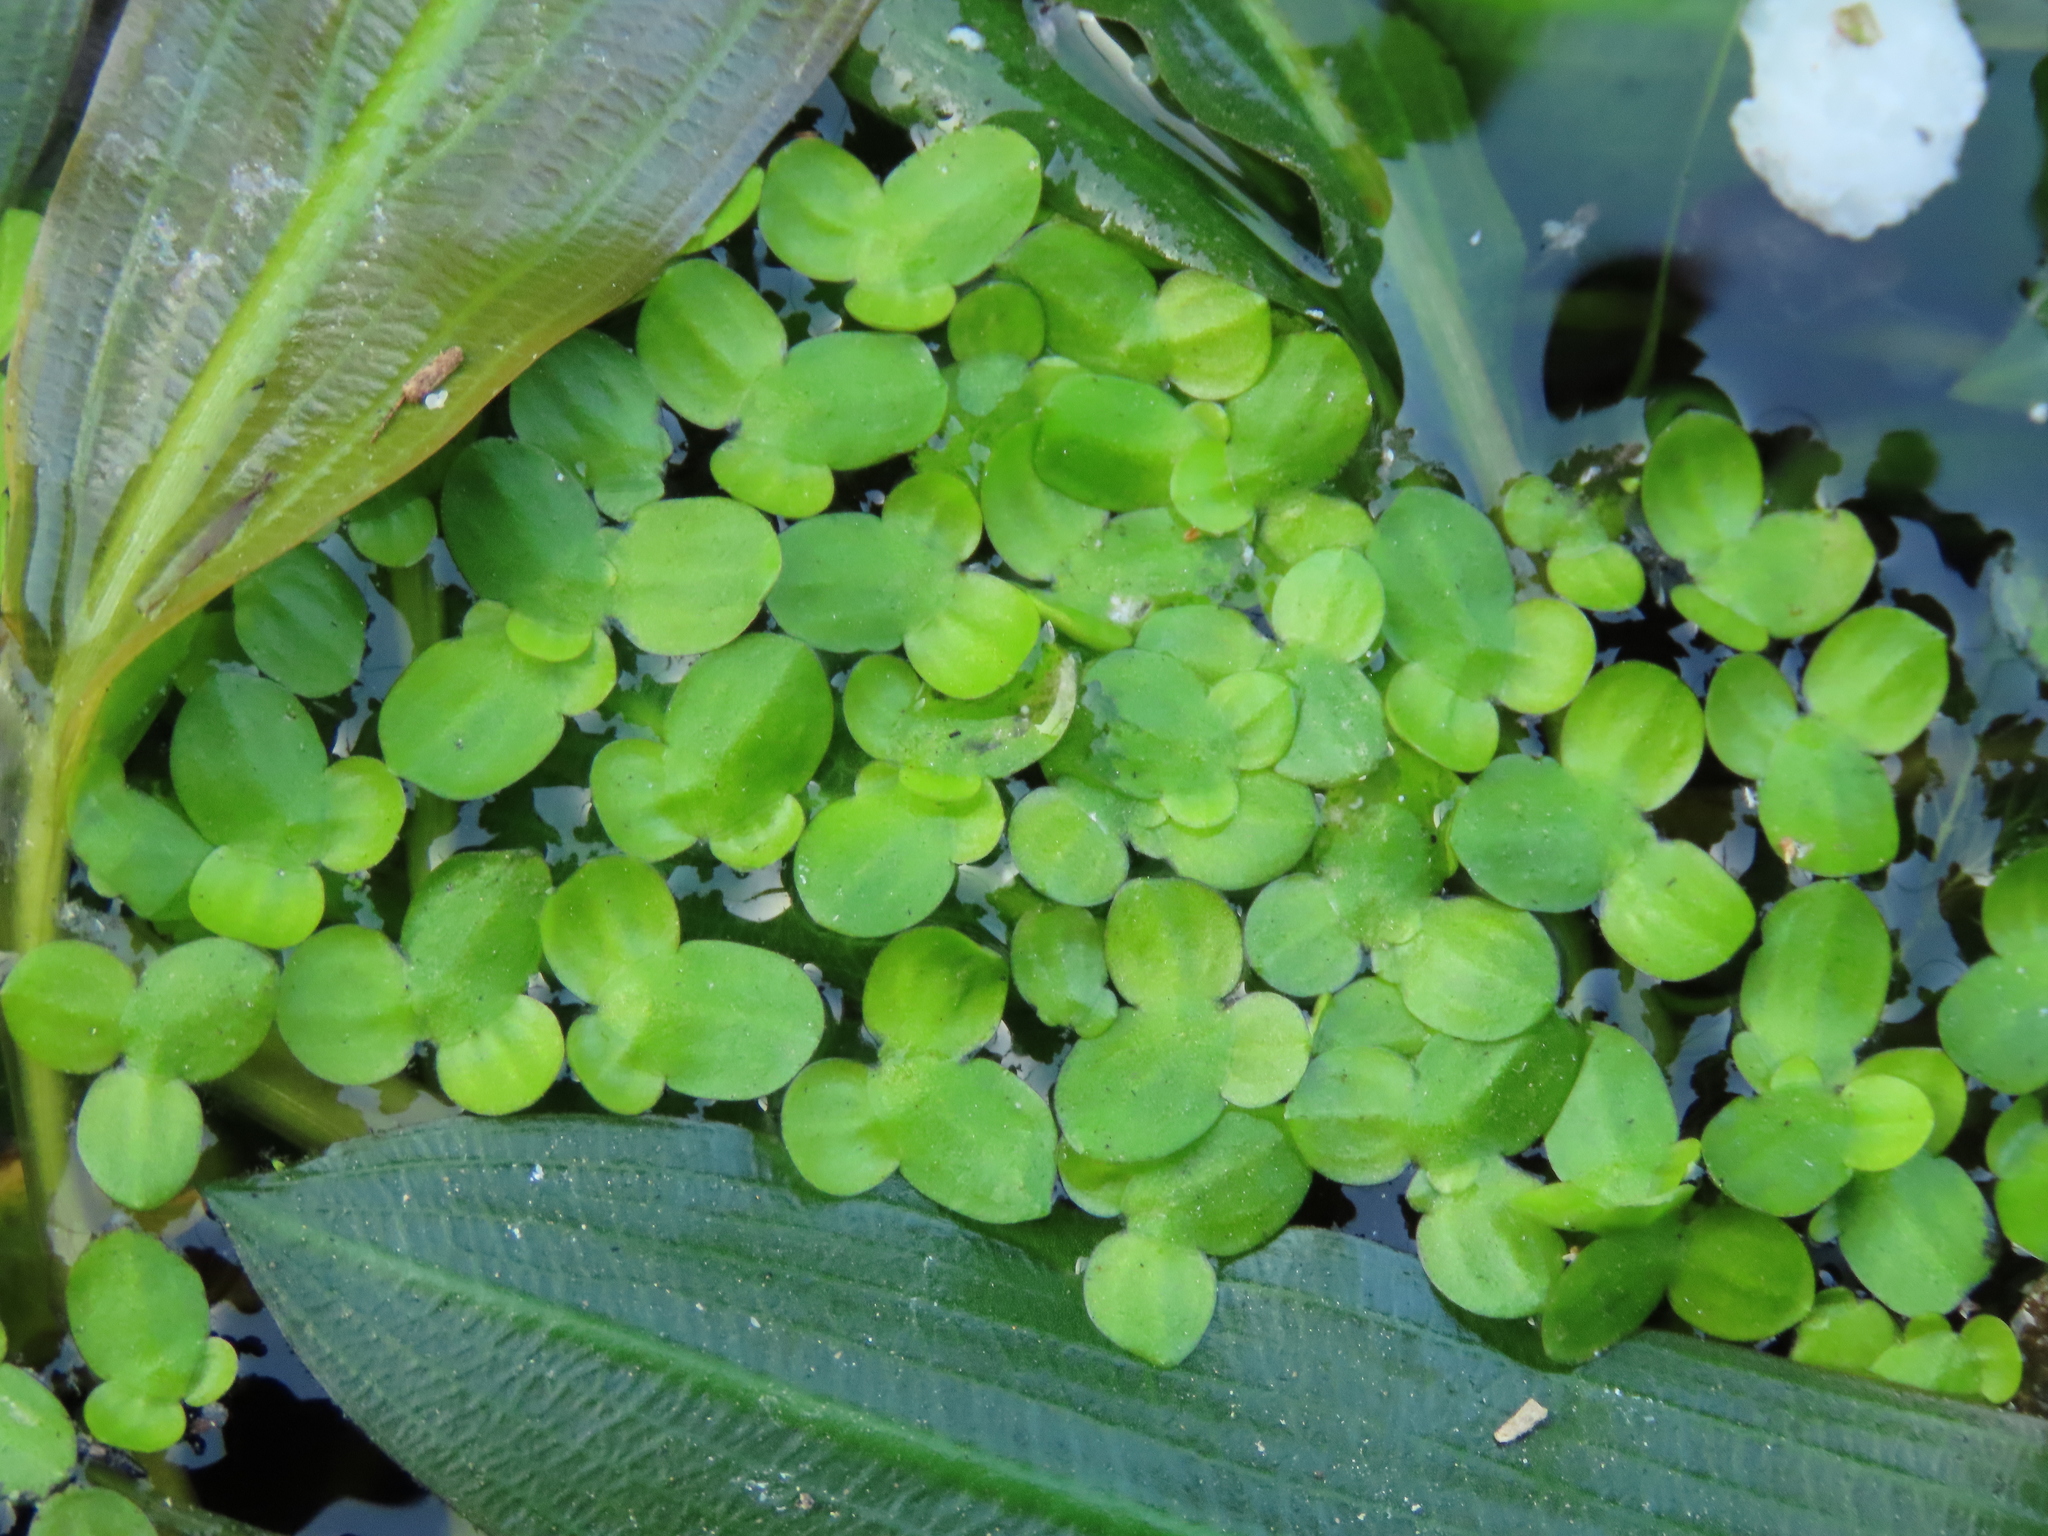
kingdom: Plantae
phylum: Tracheophyta
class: Liliopsida
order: Alismatales
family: Araceae
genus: Lemna
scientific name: Lemna aequinoctialis
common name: Duckweed
